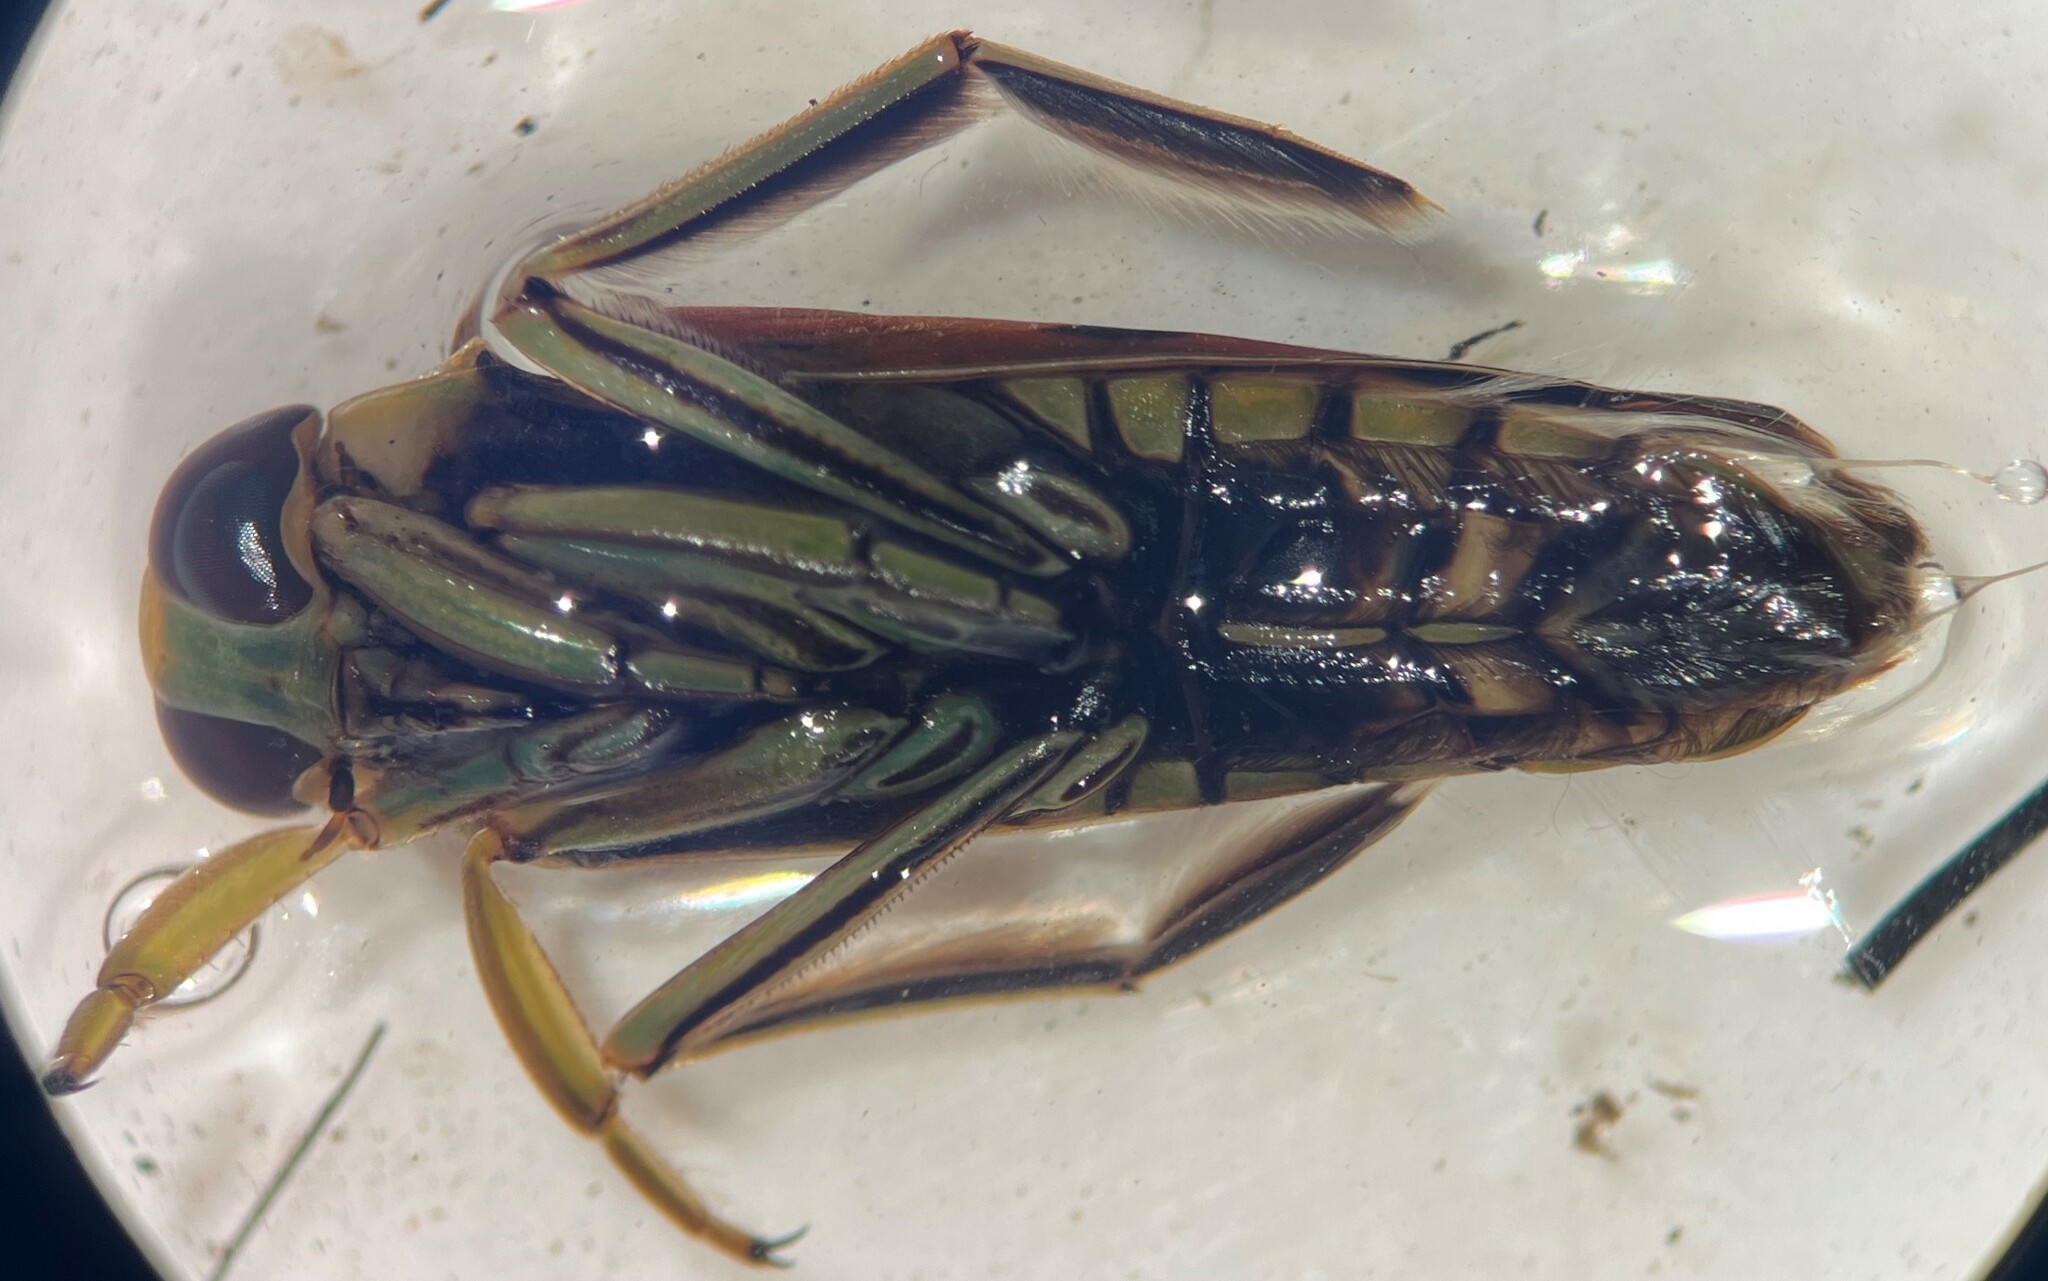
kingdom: Animalia
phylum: Arthropoda
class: Insecta
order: Hemiptera
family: Notonectidae
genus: Notonecta
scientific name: Notonecta montezuma
